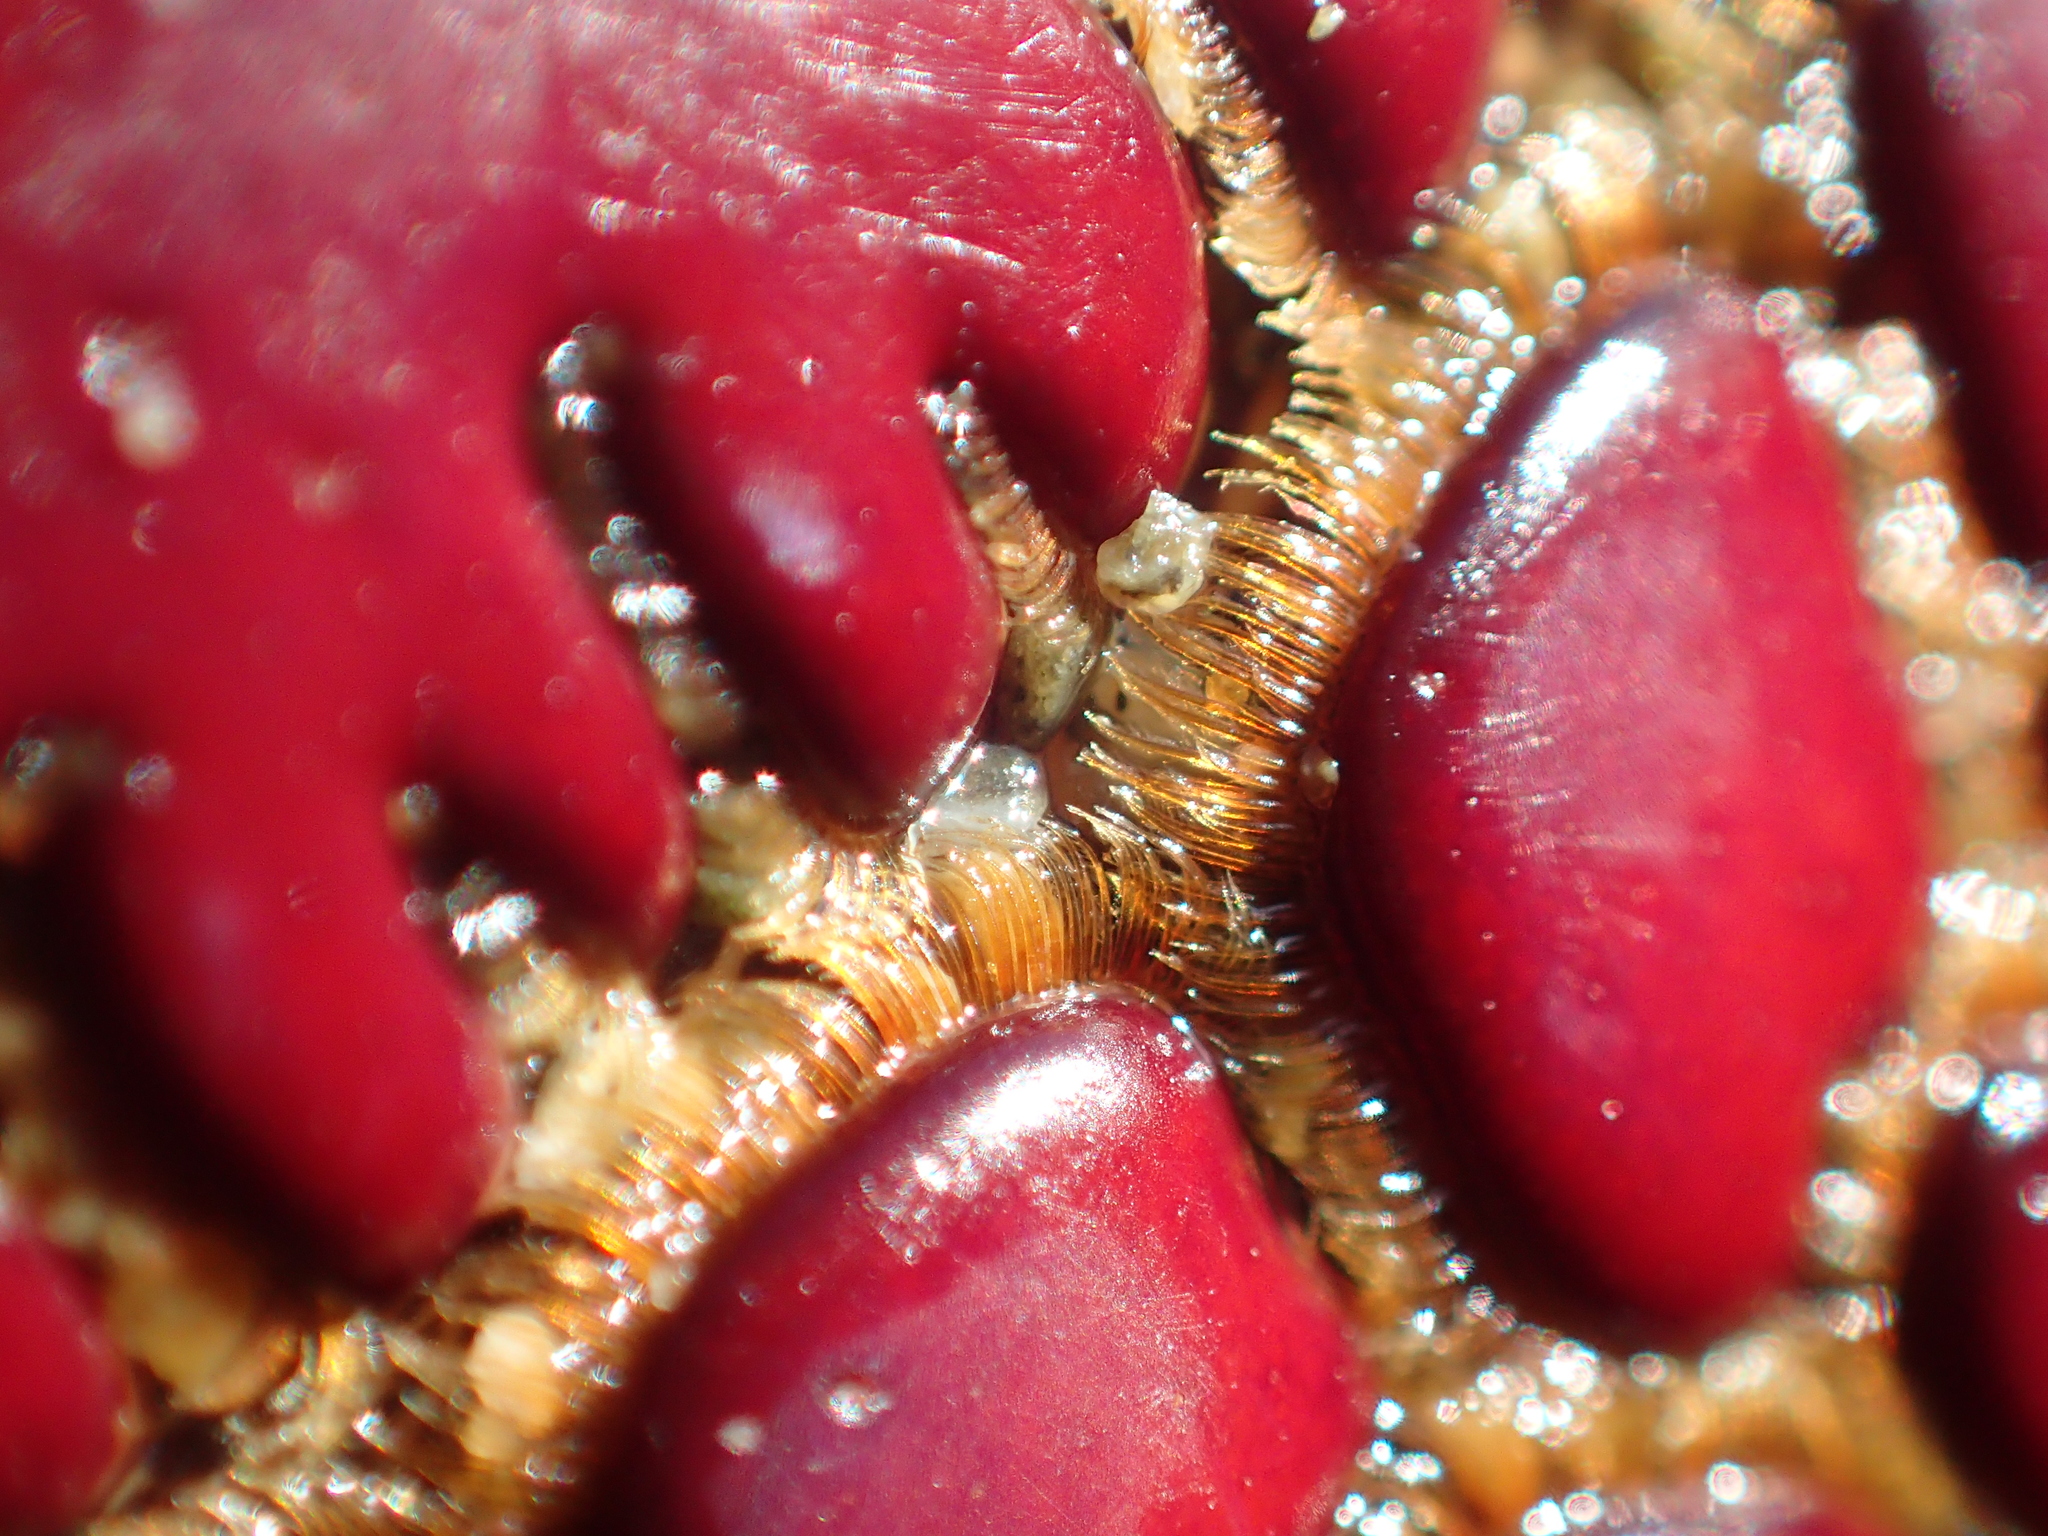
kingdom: Animalia
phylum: Arthropoda
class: Malacostraca
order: Decapoda
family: Palinuridae
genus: Jasus
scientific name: Jasus edwardsii
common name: Red rock lobster
